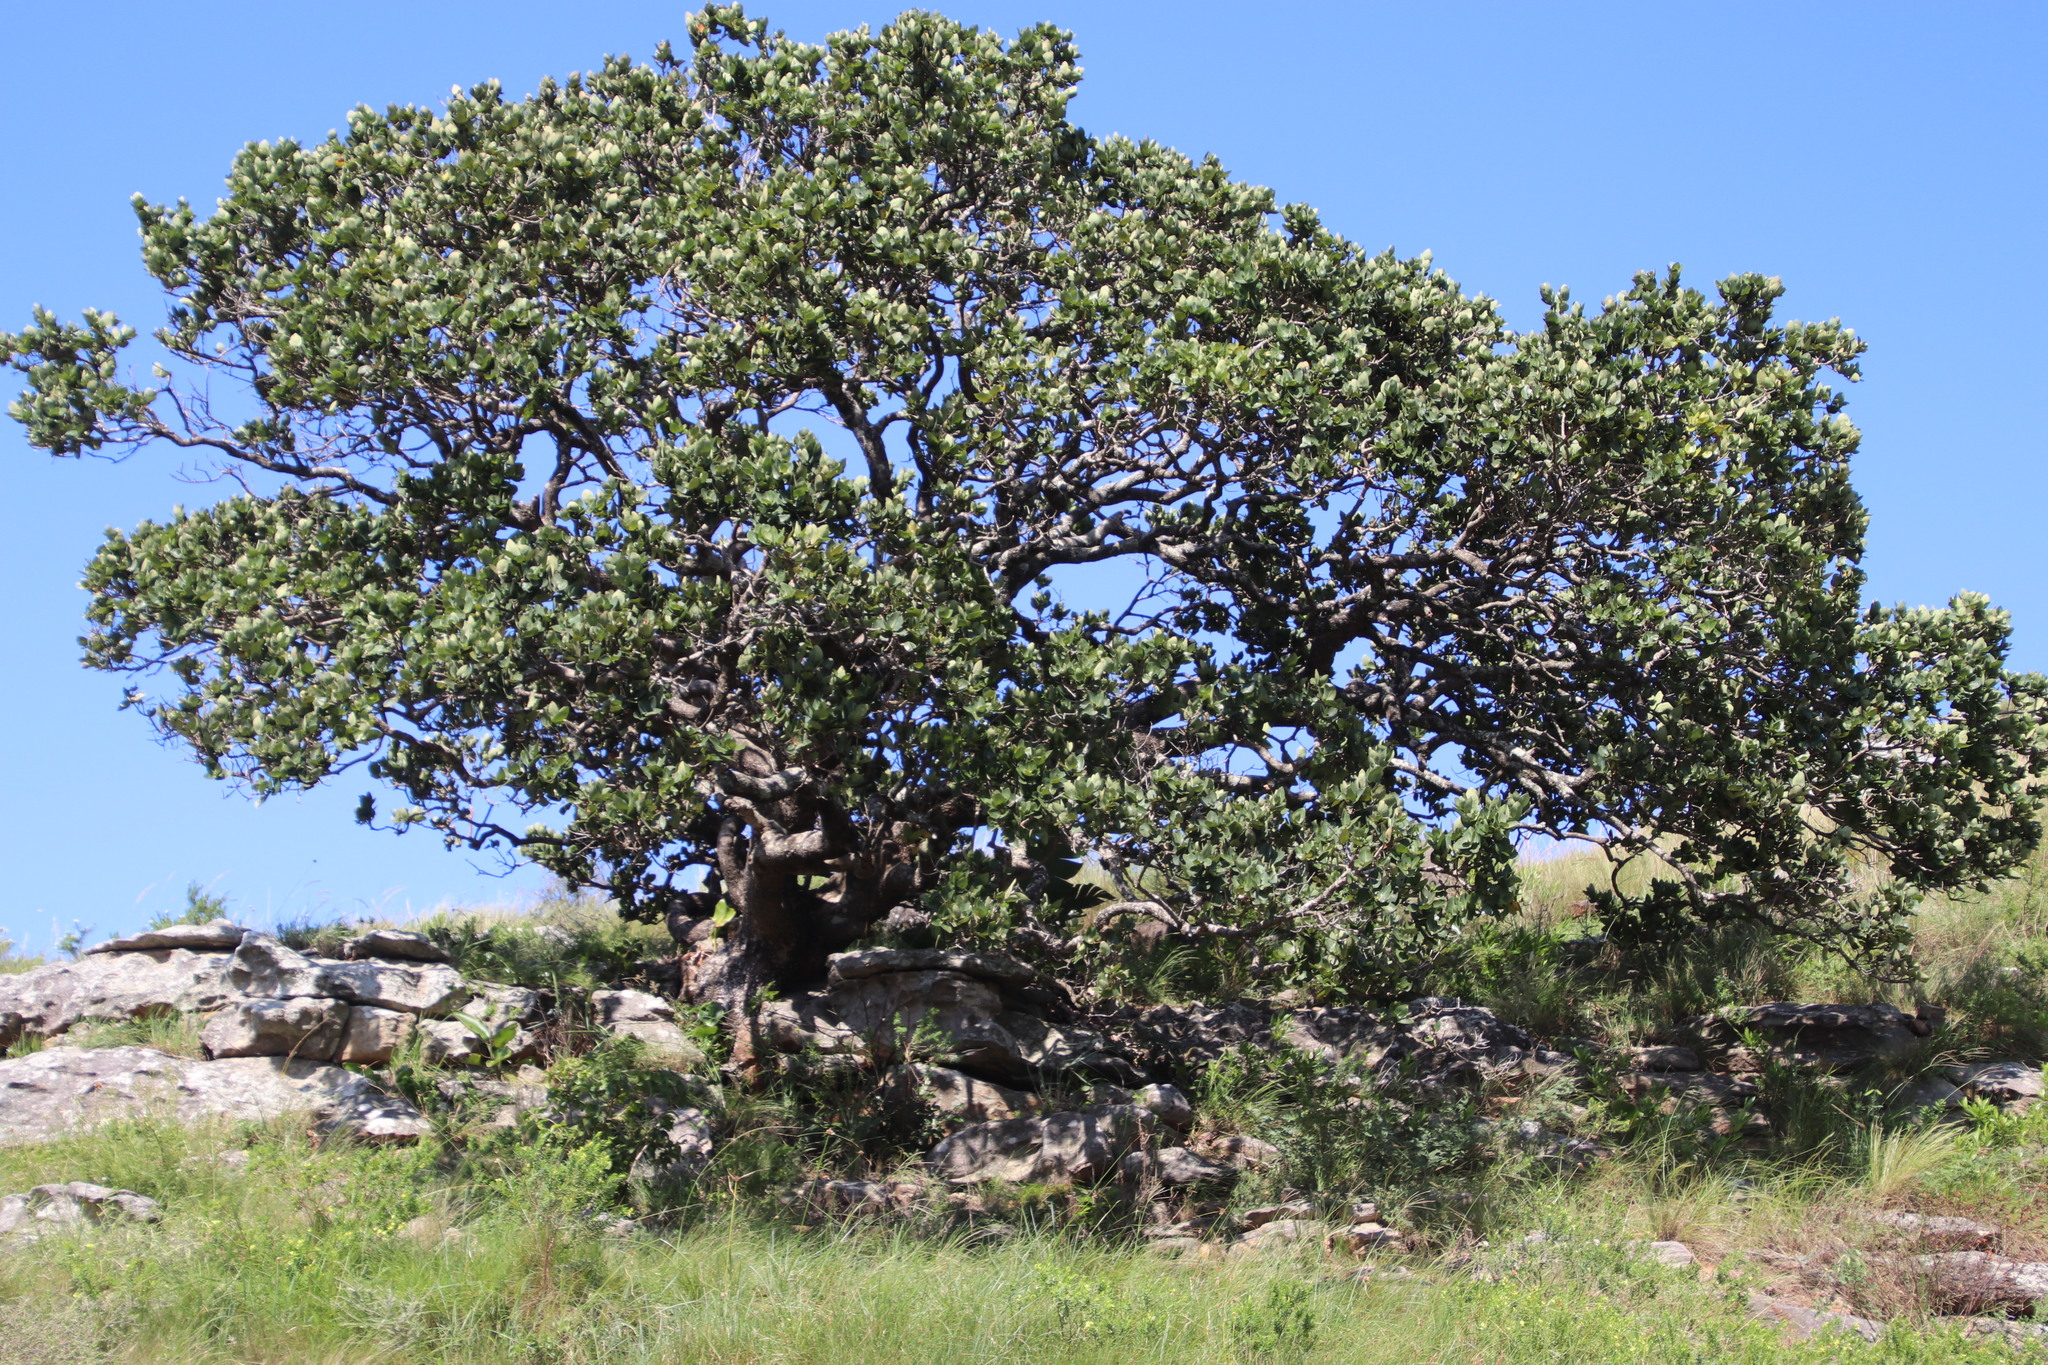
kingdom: Plantae
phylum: Tracheophyta
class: Magnoliopsida
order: Myrtales
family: Myrtaceae
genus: Syzygium
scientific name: Syzygium cordatum
